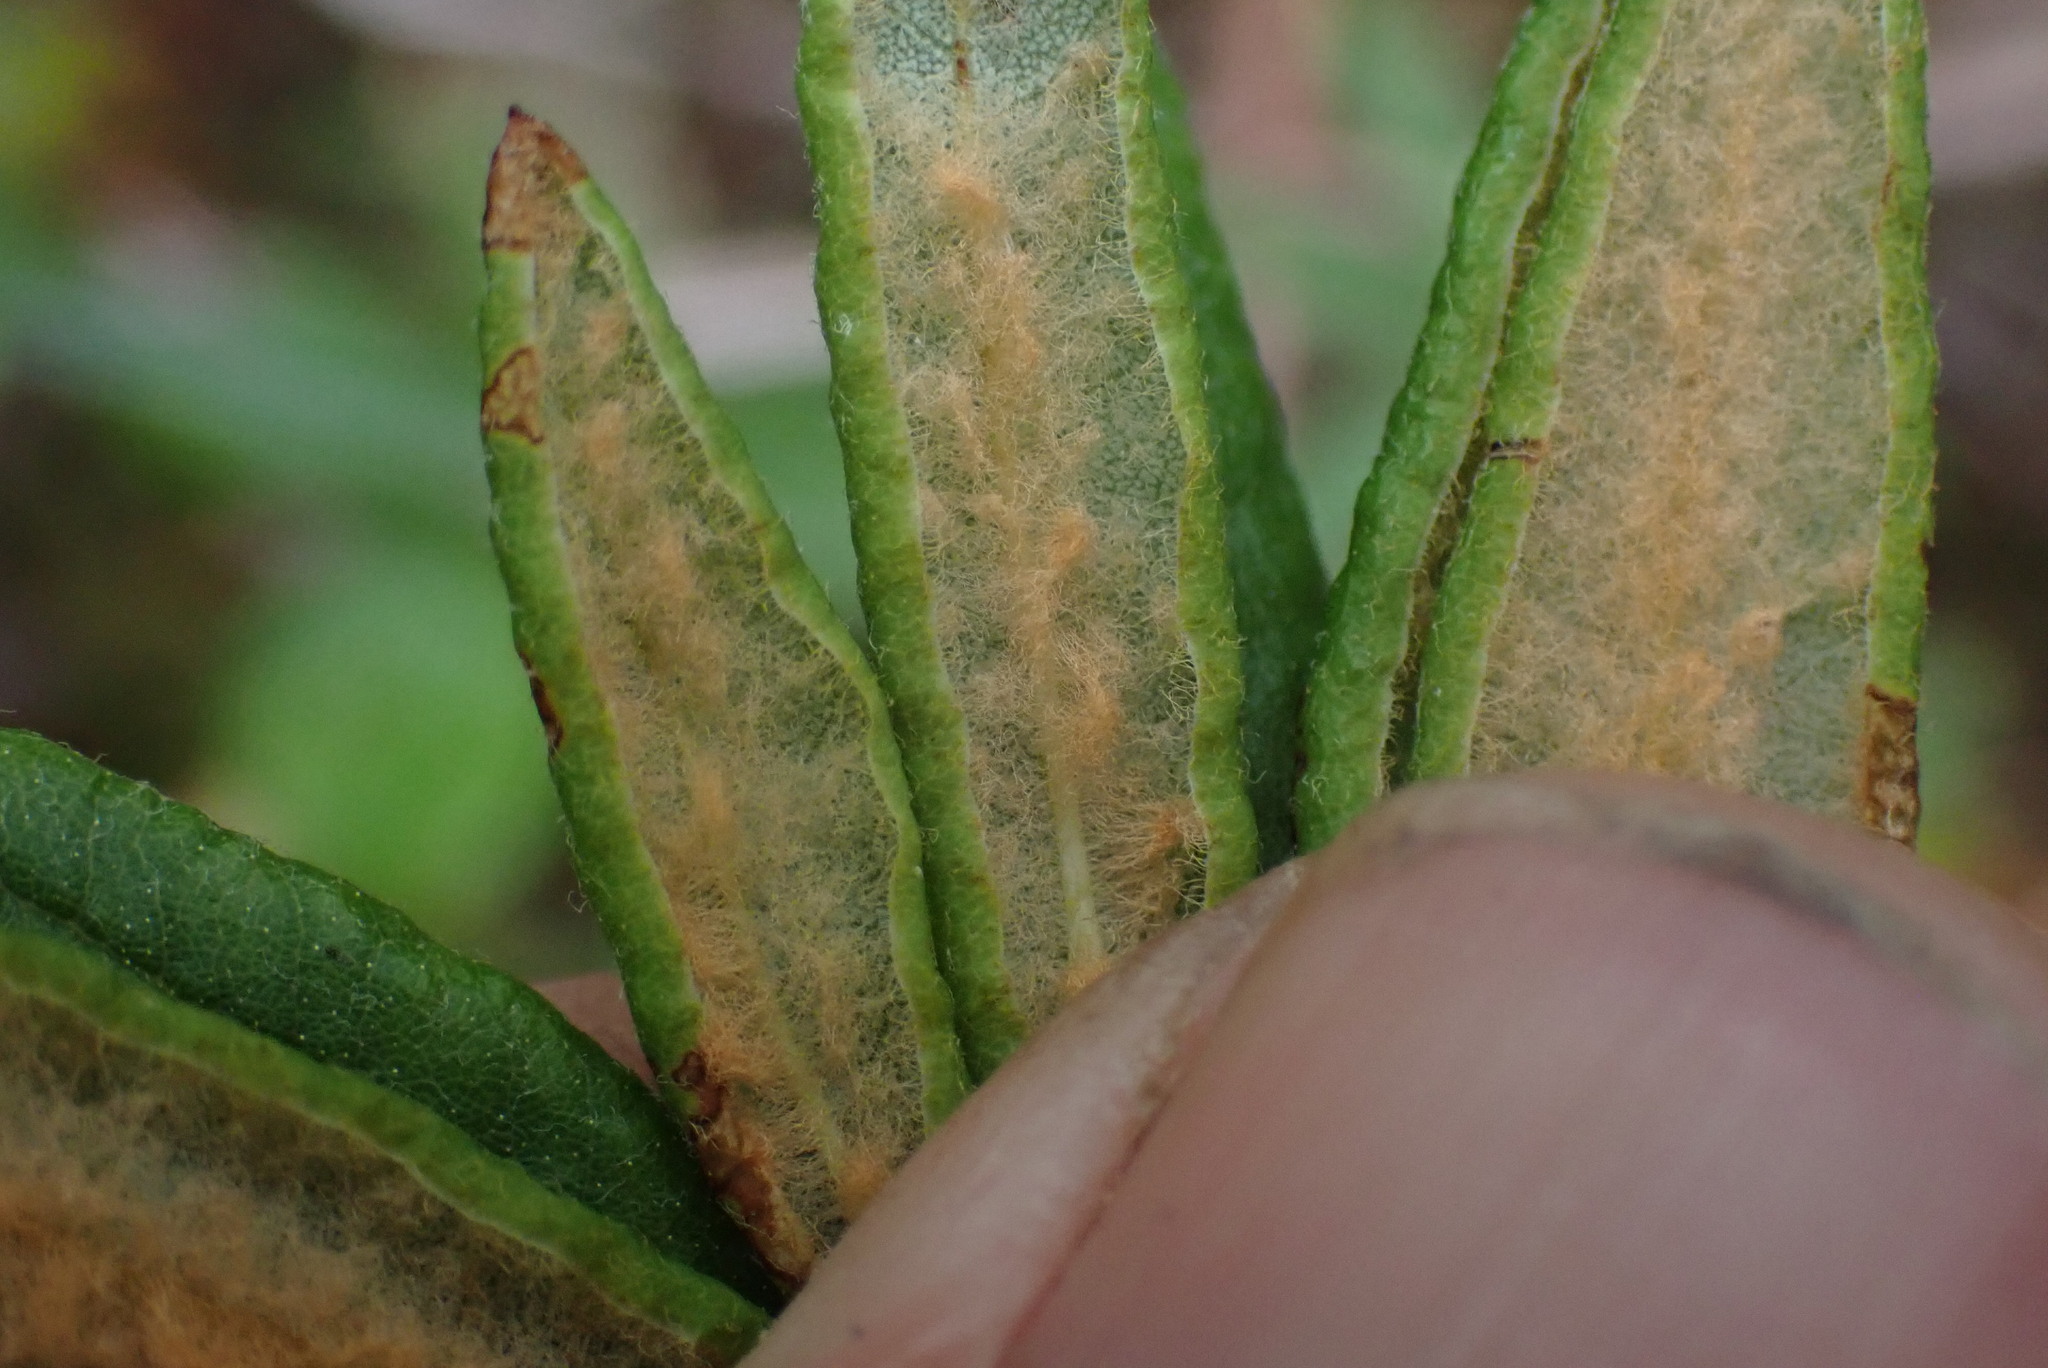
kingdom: Plantae
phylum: Tracheophyta
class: Magnoliopsida
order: Ericales
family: Ericaceae
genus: Rhododendron
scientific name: Rhododendron groenlandicum
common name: Bog labrador tea
